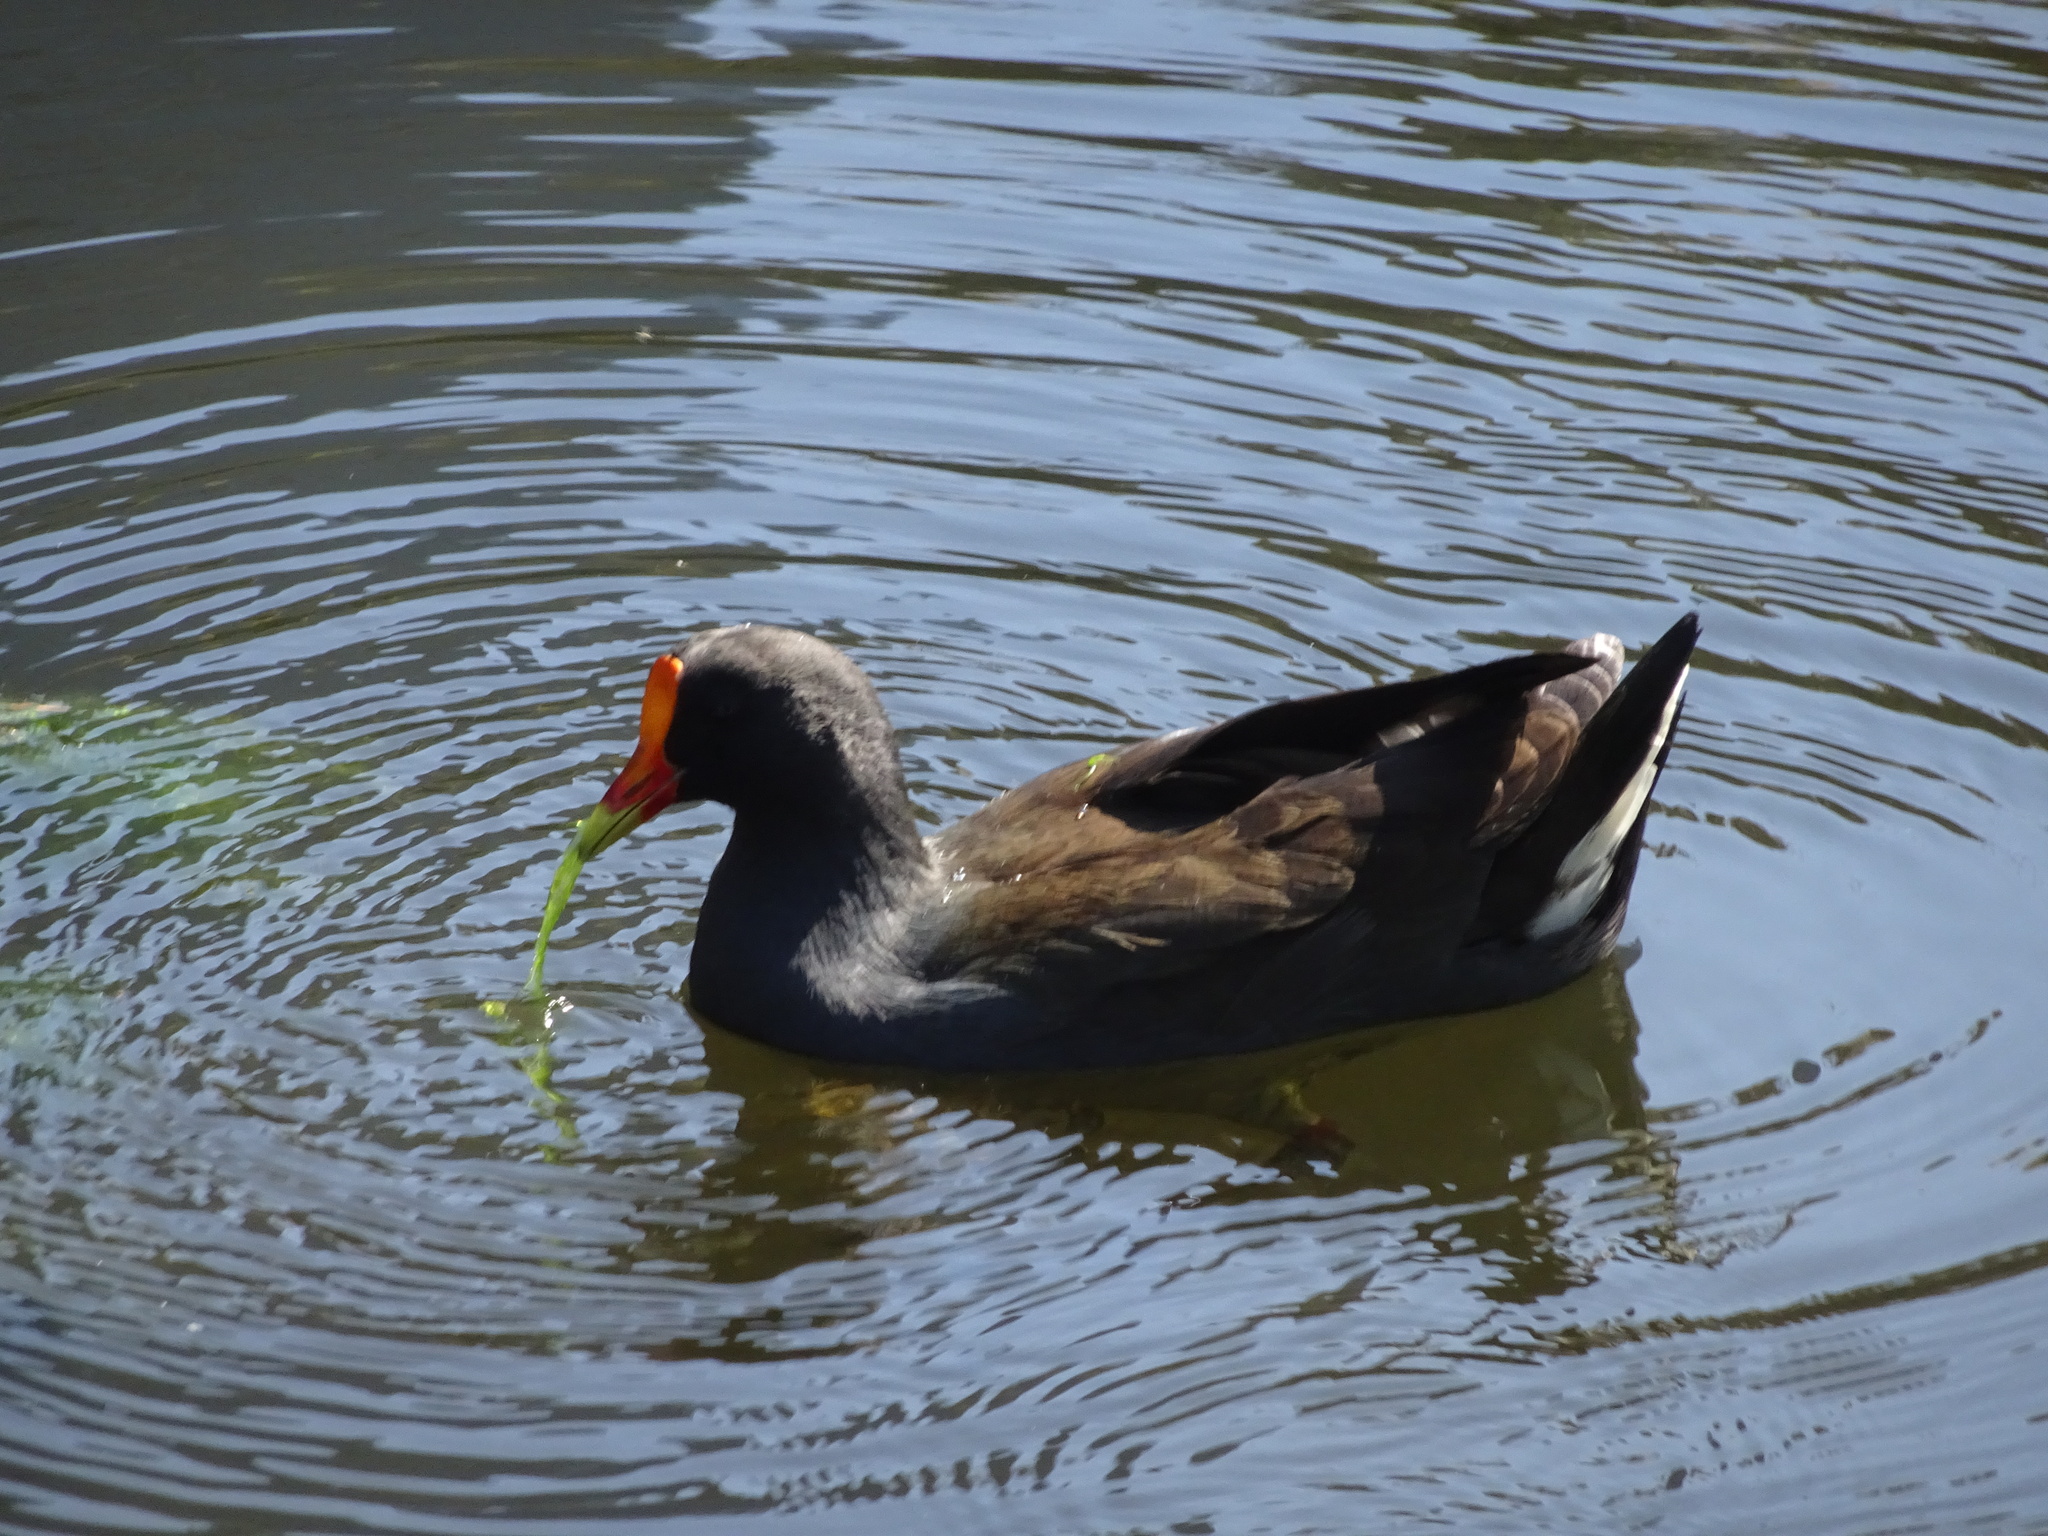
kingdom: Animalia
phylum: Chordata
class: Aves
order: Gruiformes
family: Rallidae
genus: Gallinula
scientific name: Gallinula tenebrosa
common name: Dusky moorhen
